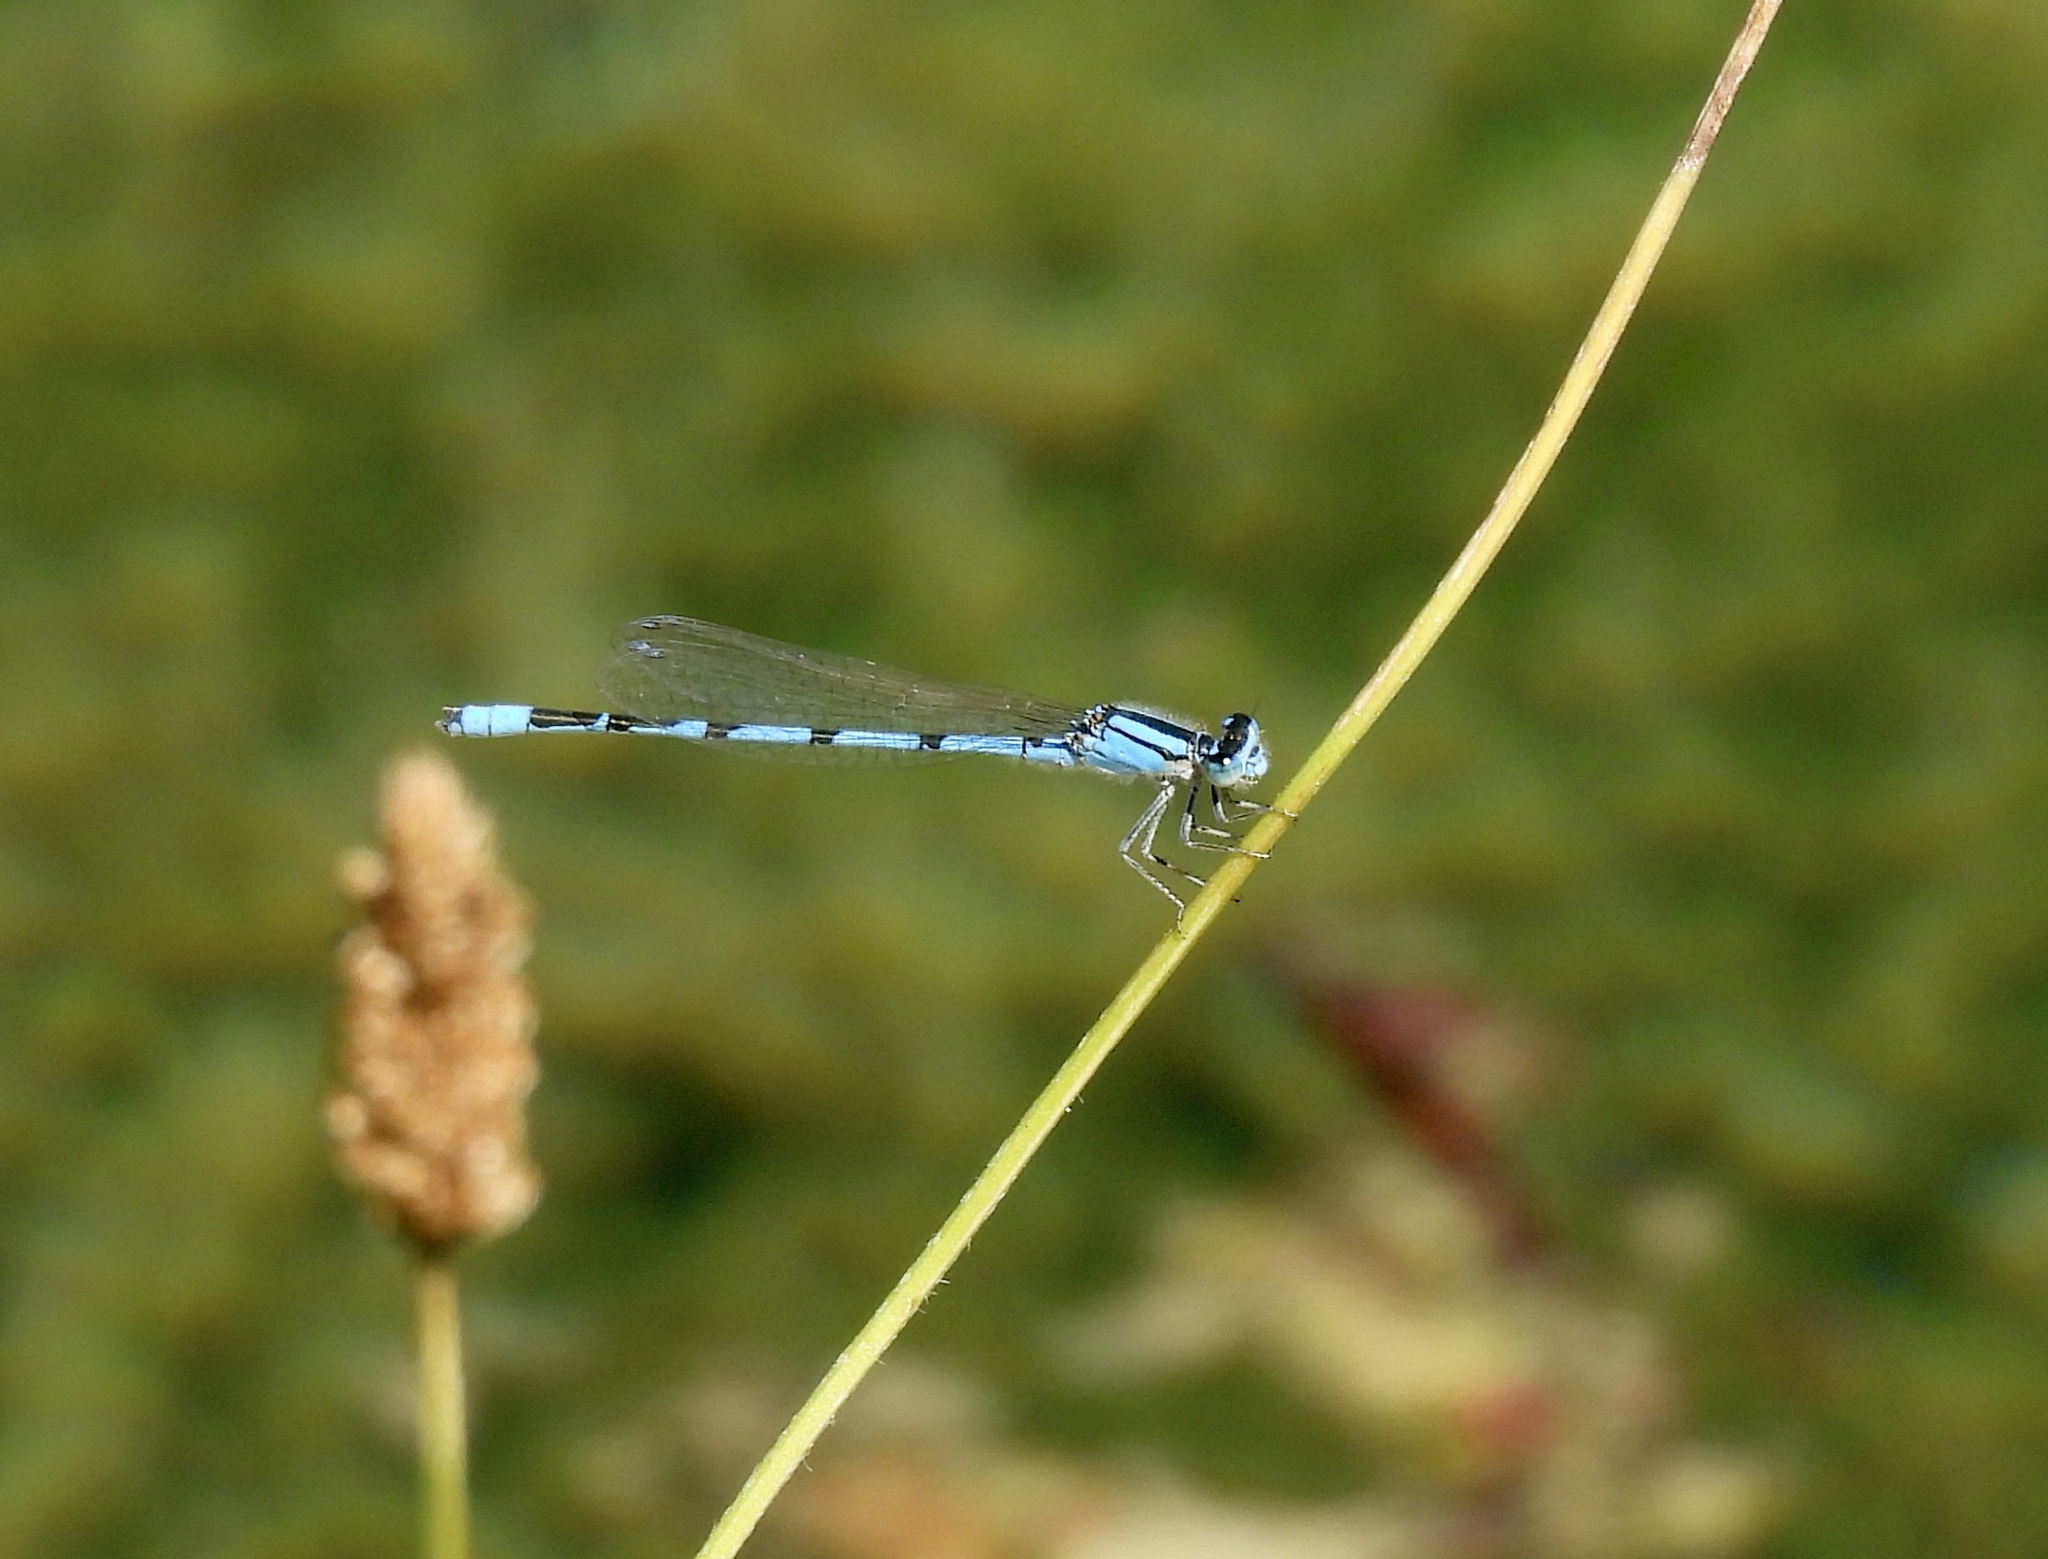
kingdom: Animalia
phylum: Arthropoda
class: Insecta
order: Odonata
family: Coenagrionidae
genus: Enallagma
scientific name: Enallagma civile
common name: Damselfly
